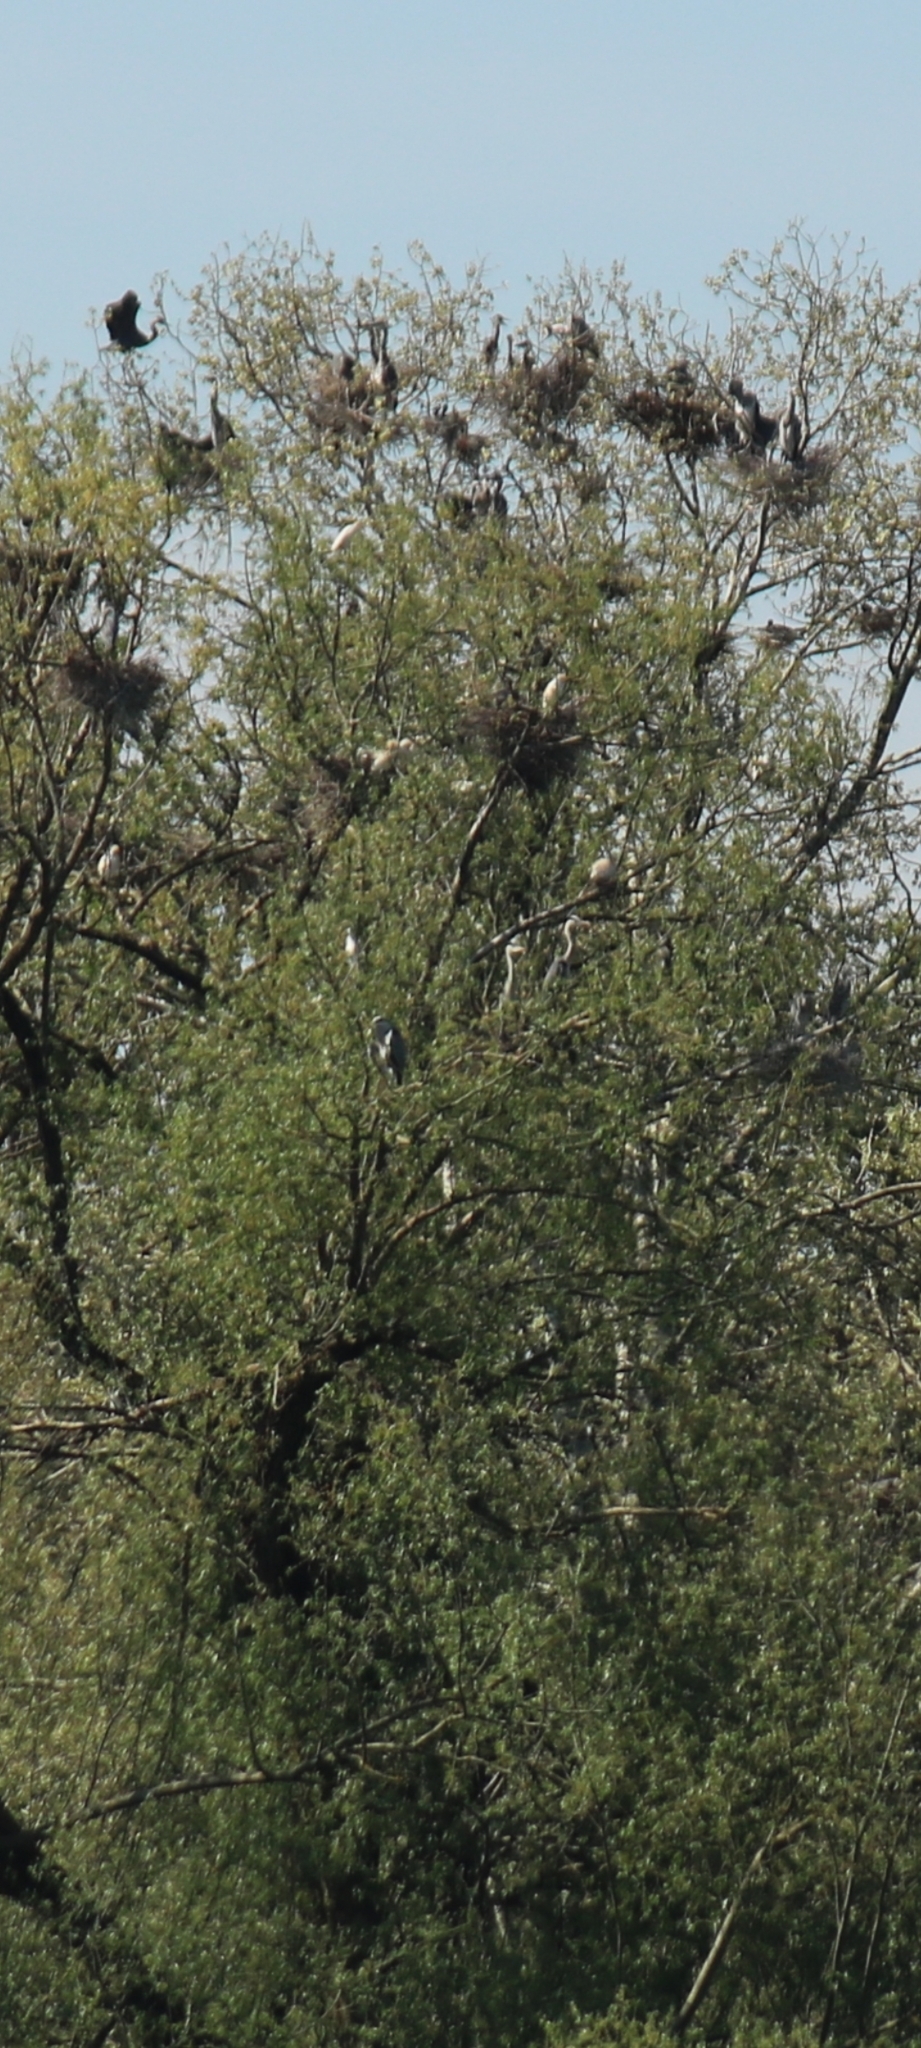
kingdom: Animalia
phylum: Chordata
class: Aves
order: Pelecaniformes
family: Ardeidae
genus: Ardea
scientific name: Ardea cinerea
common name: Grey heron
